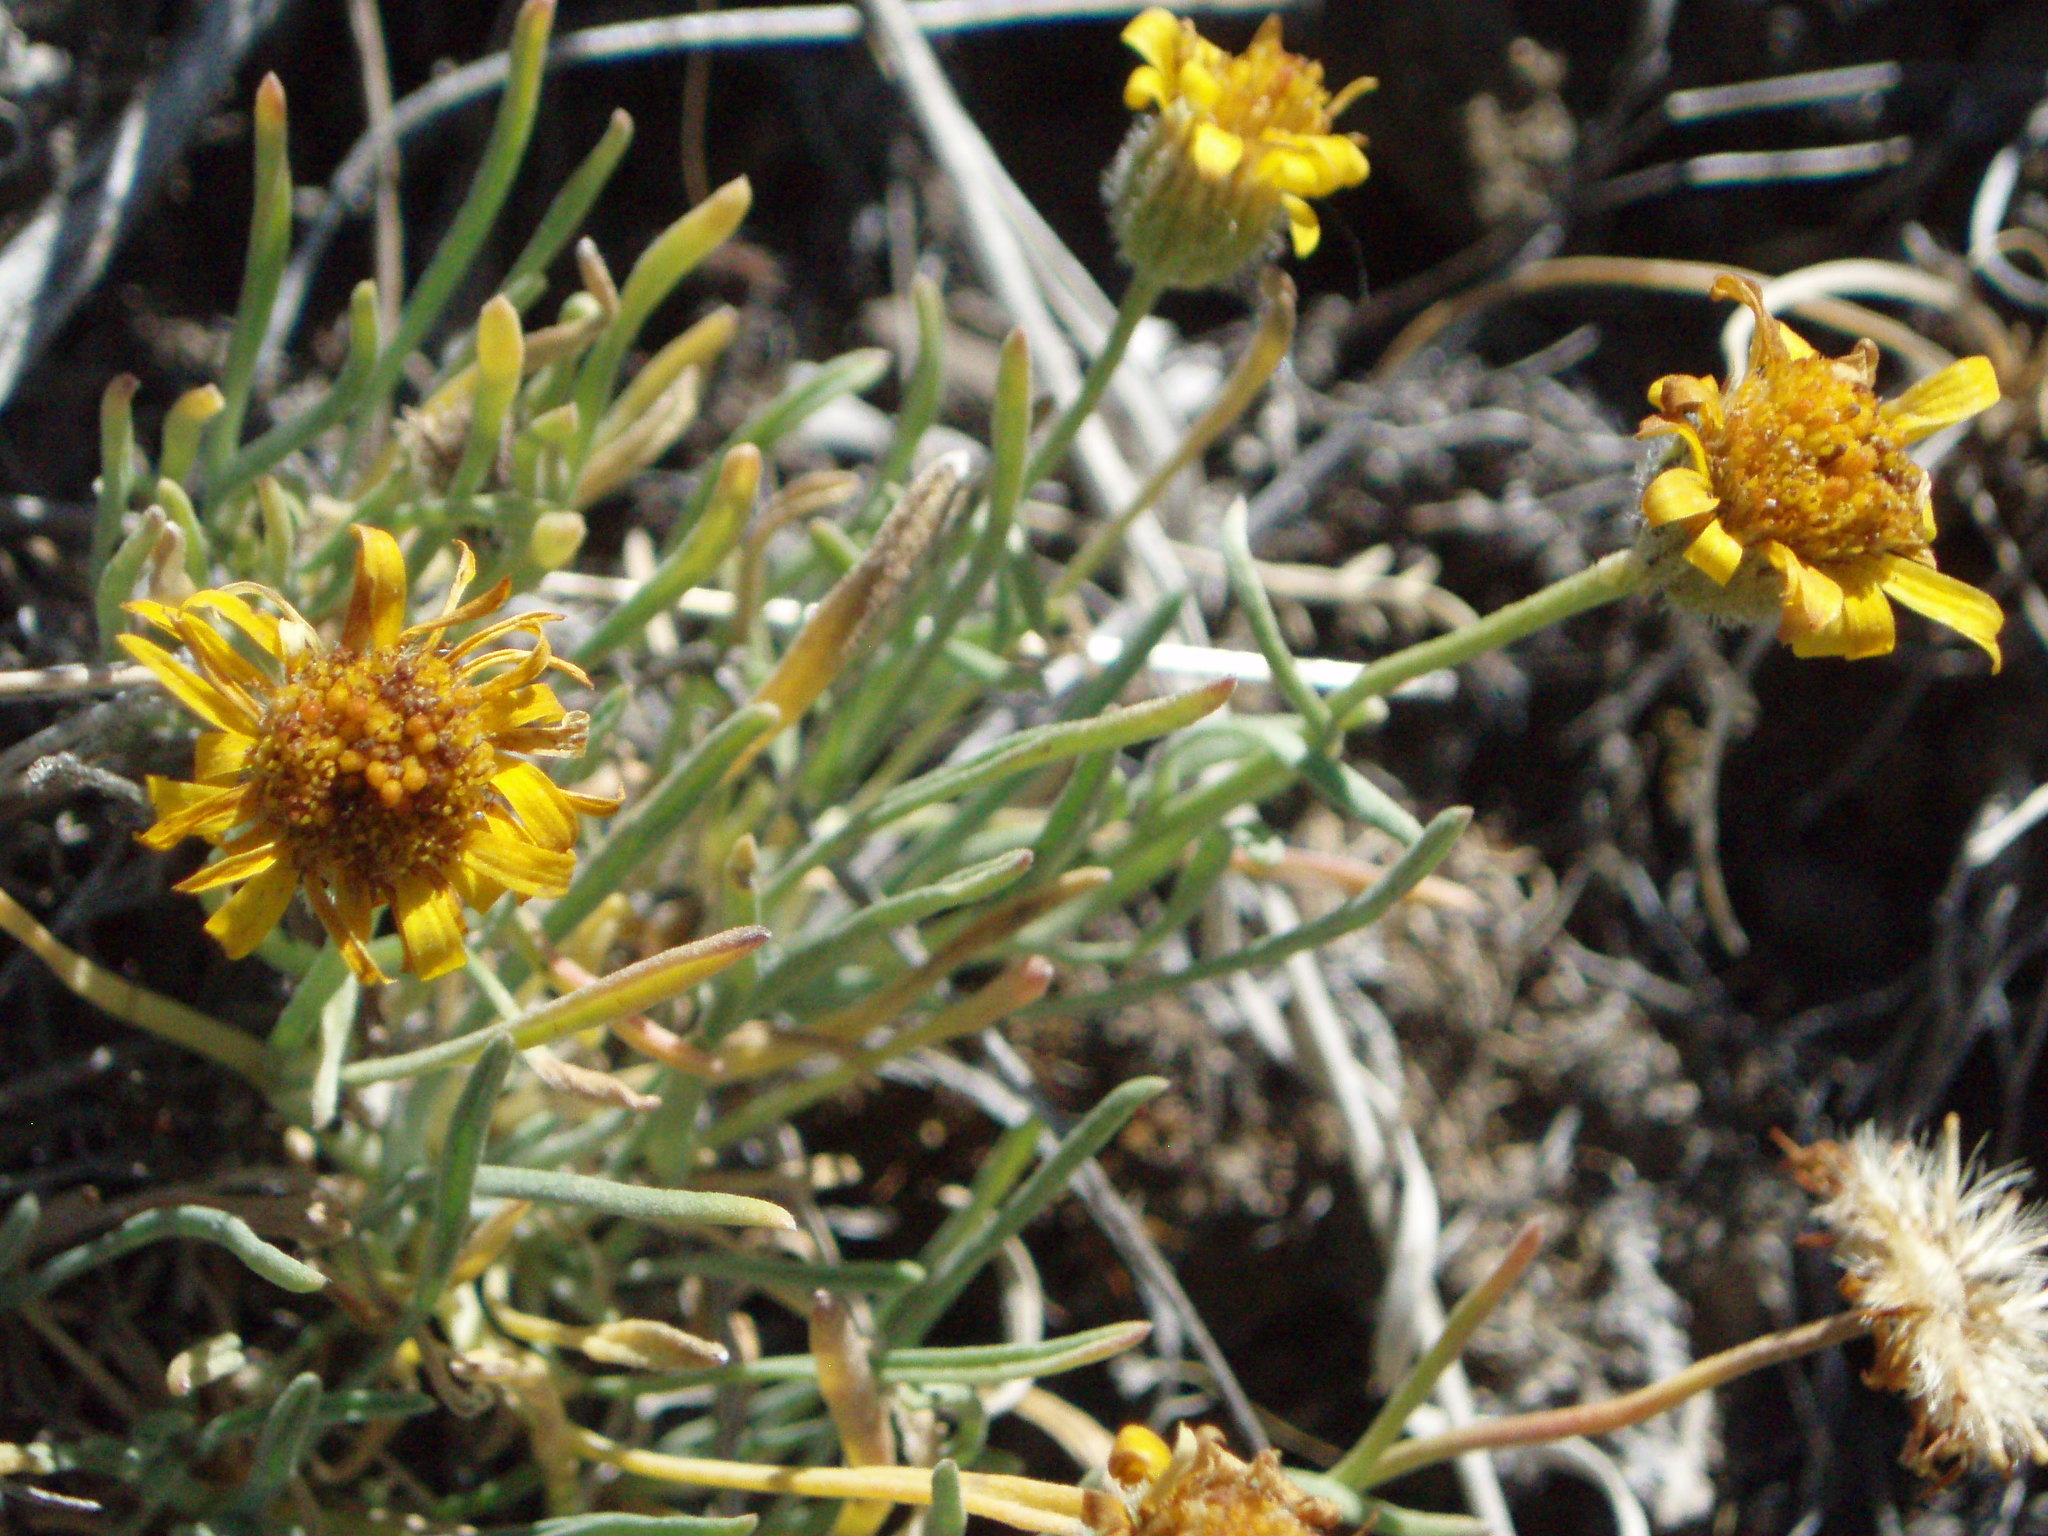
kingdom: Plantae
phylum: Tracheophyta
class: Magnoliopsida
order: Asterales
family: Asteraceae
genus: Erigeron
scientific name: Erigeron linearis
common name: Desert yellow fleabane
